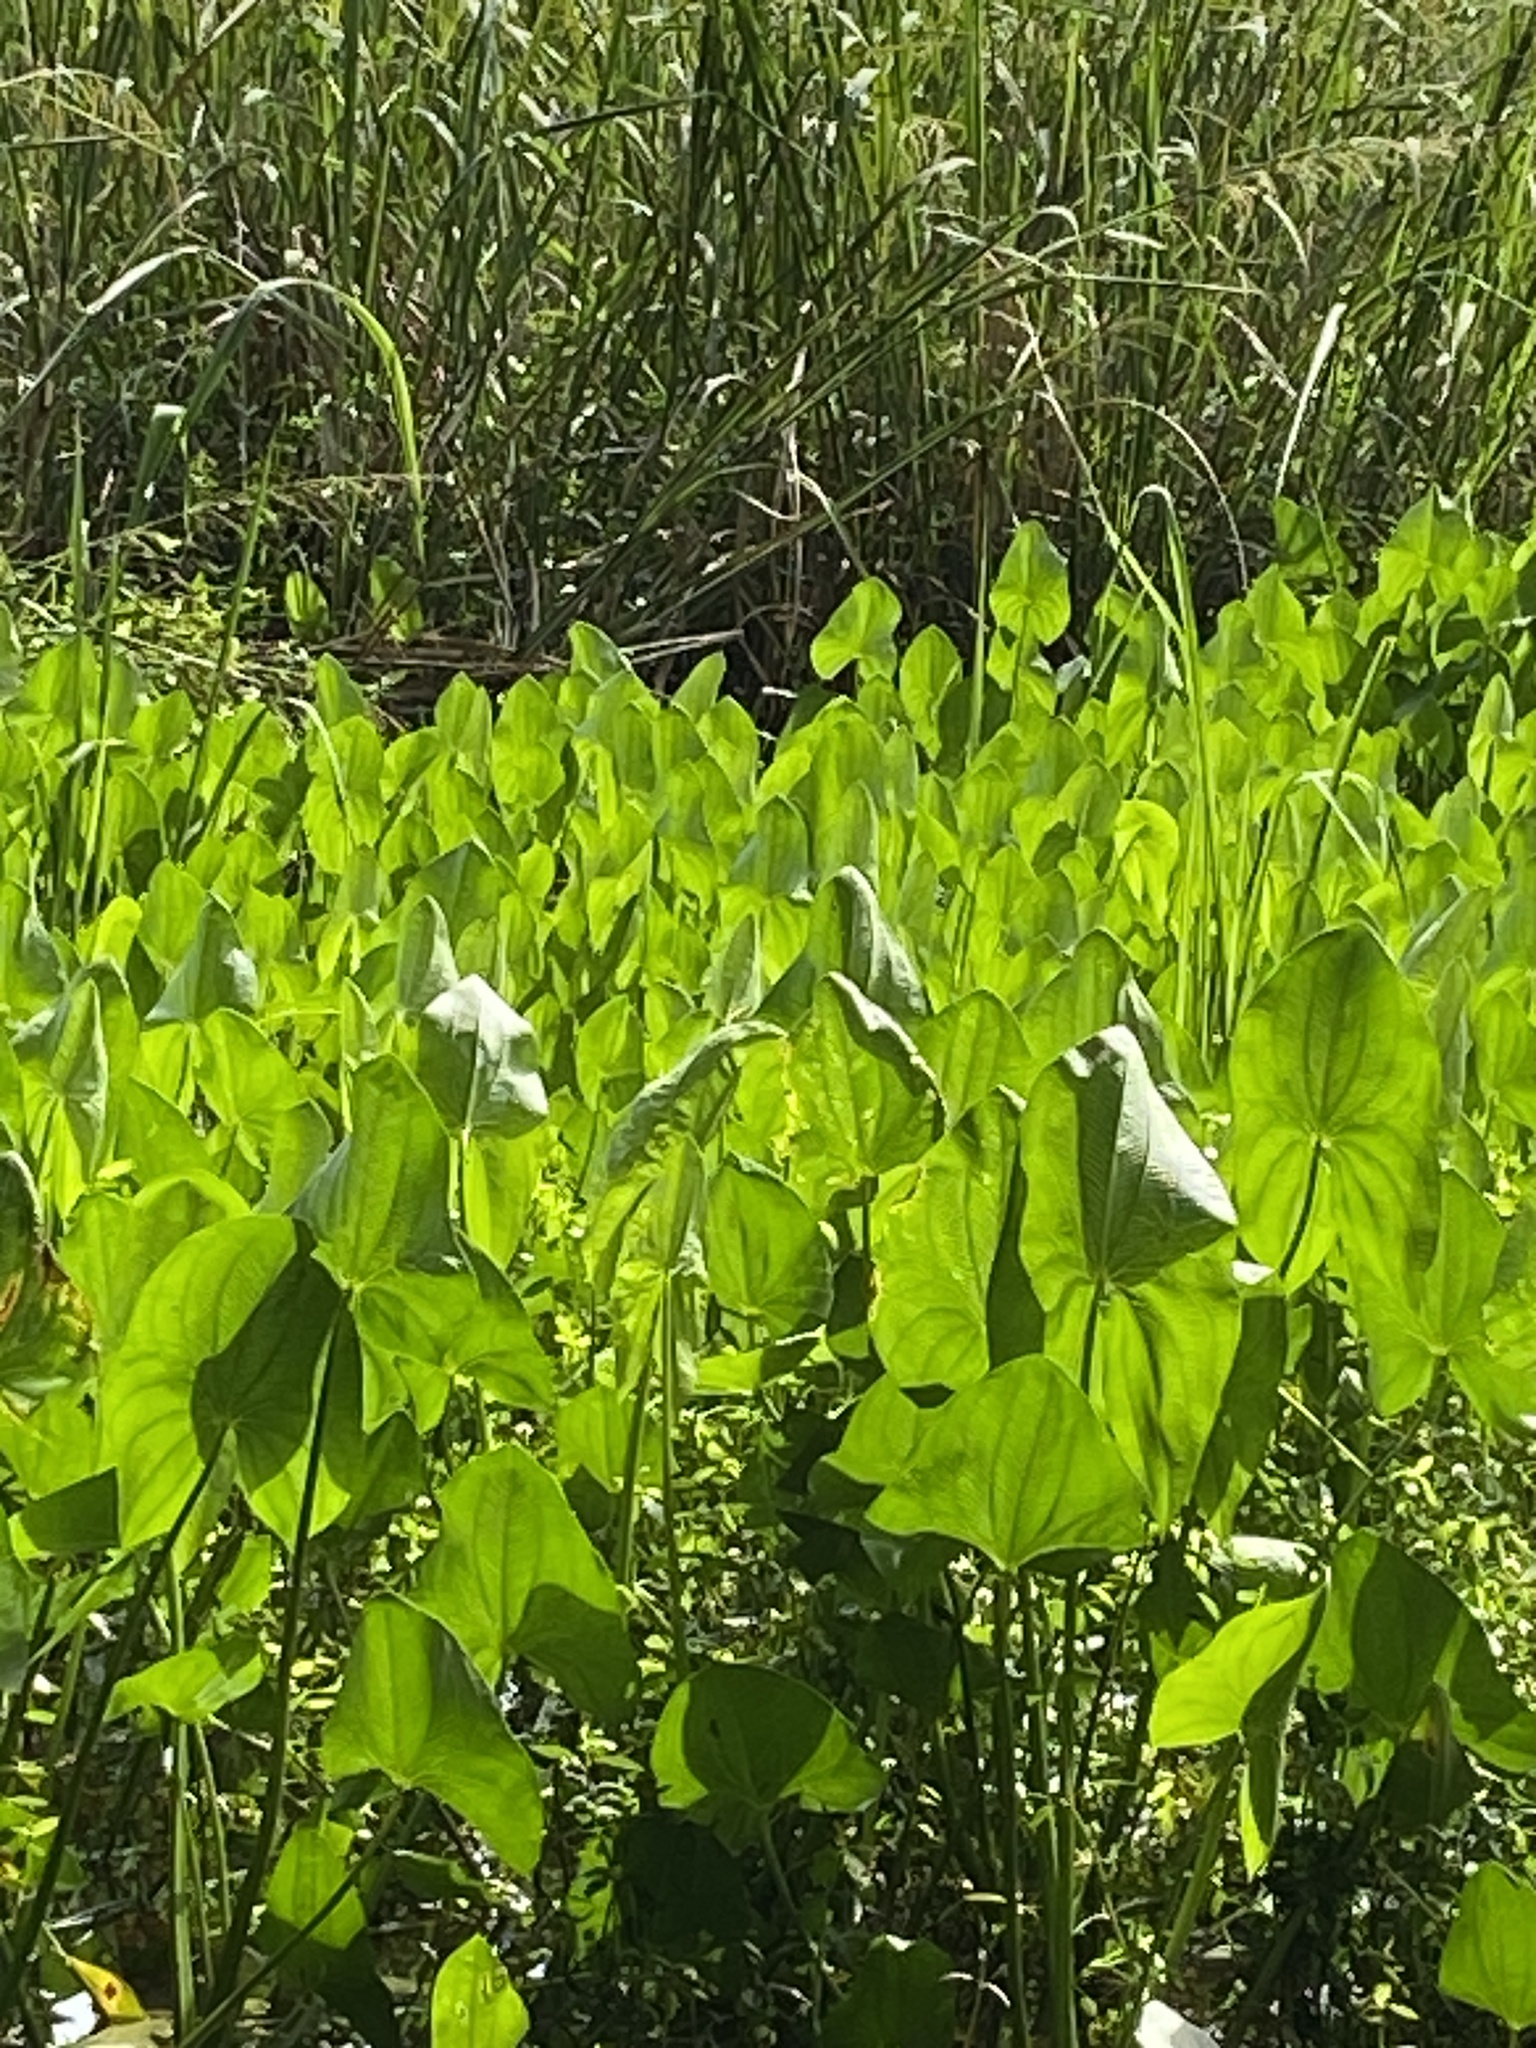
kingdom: Plantae
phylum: Tracheophyta
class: Liliopsida
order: Alismatales
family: Alismataceae
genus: Sagittaria
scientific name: Sagittaria latifolia
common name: Duck-potato
